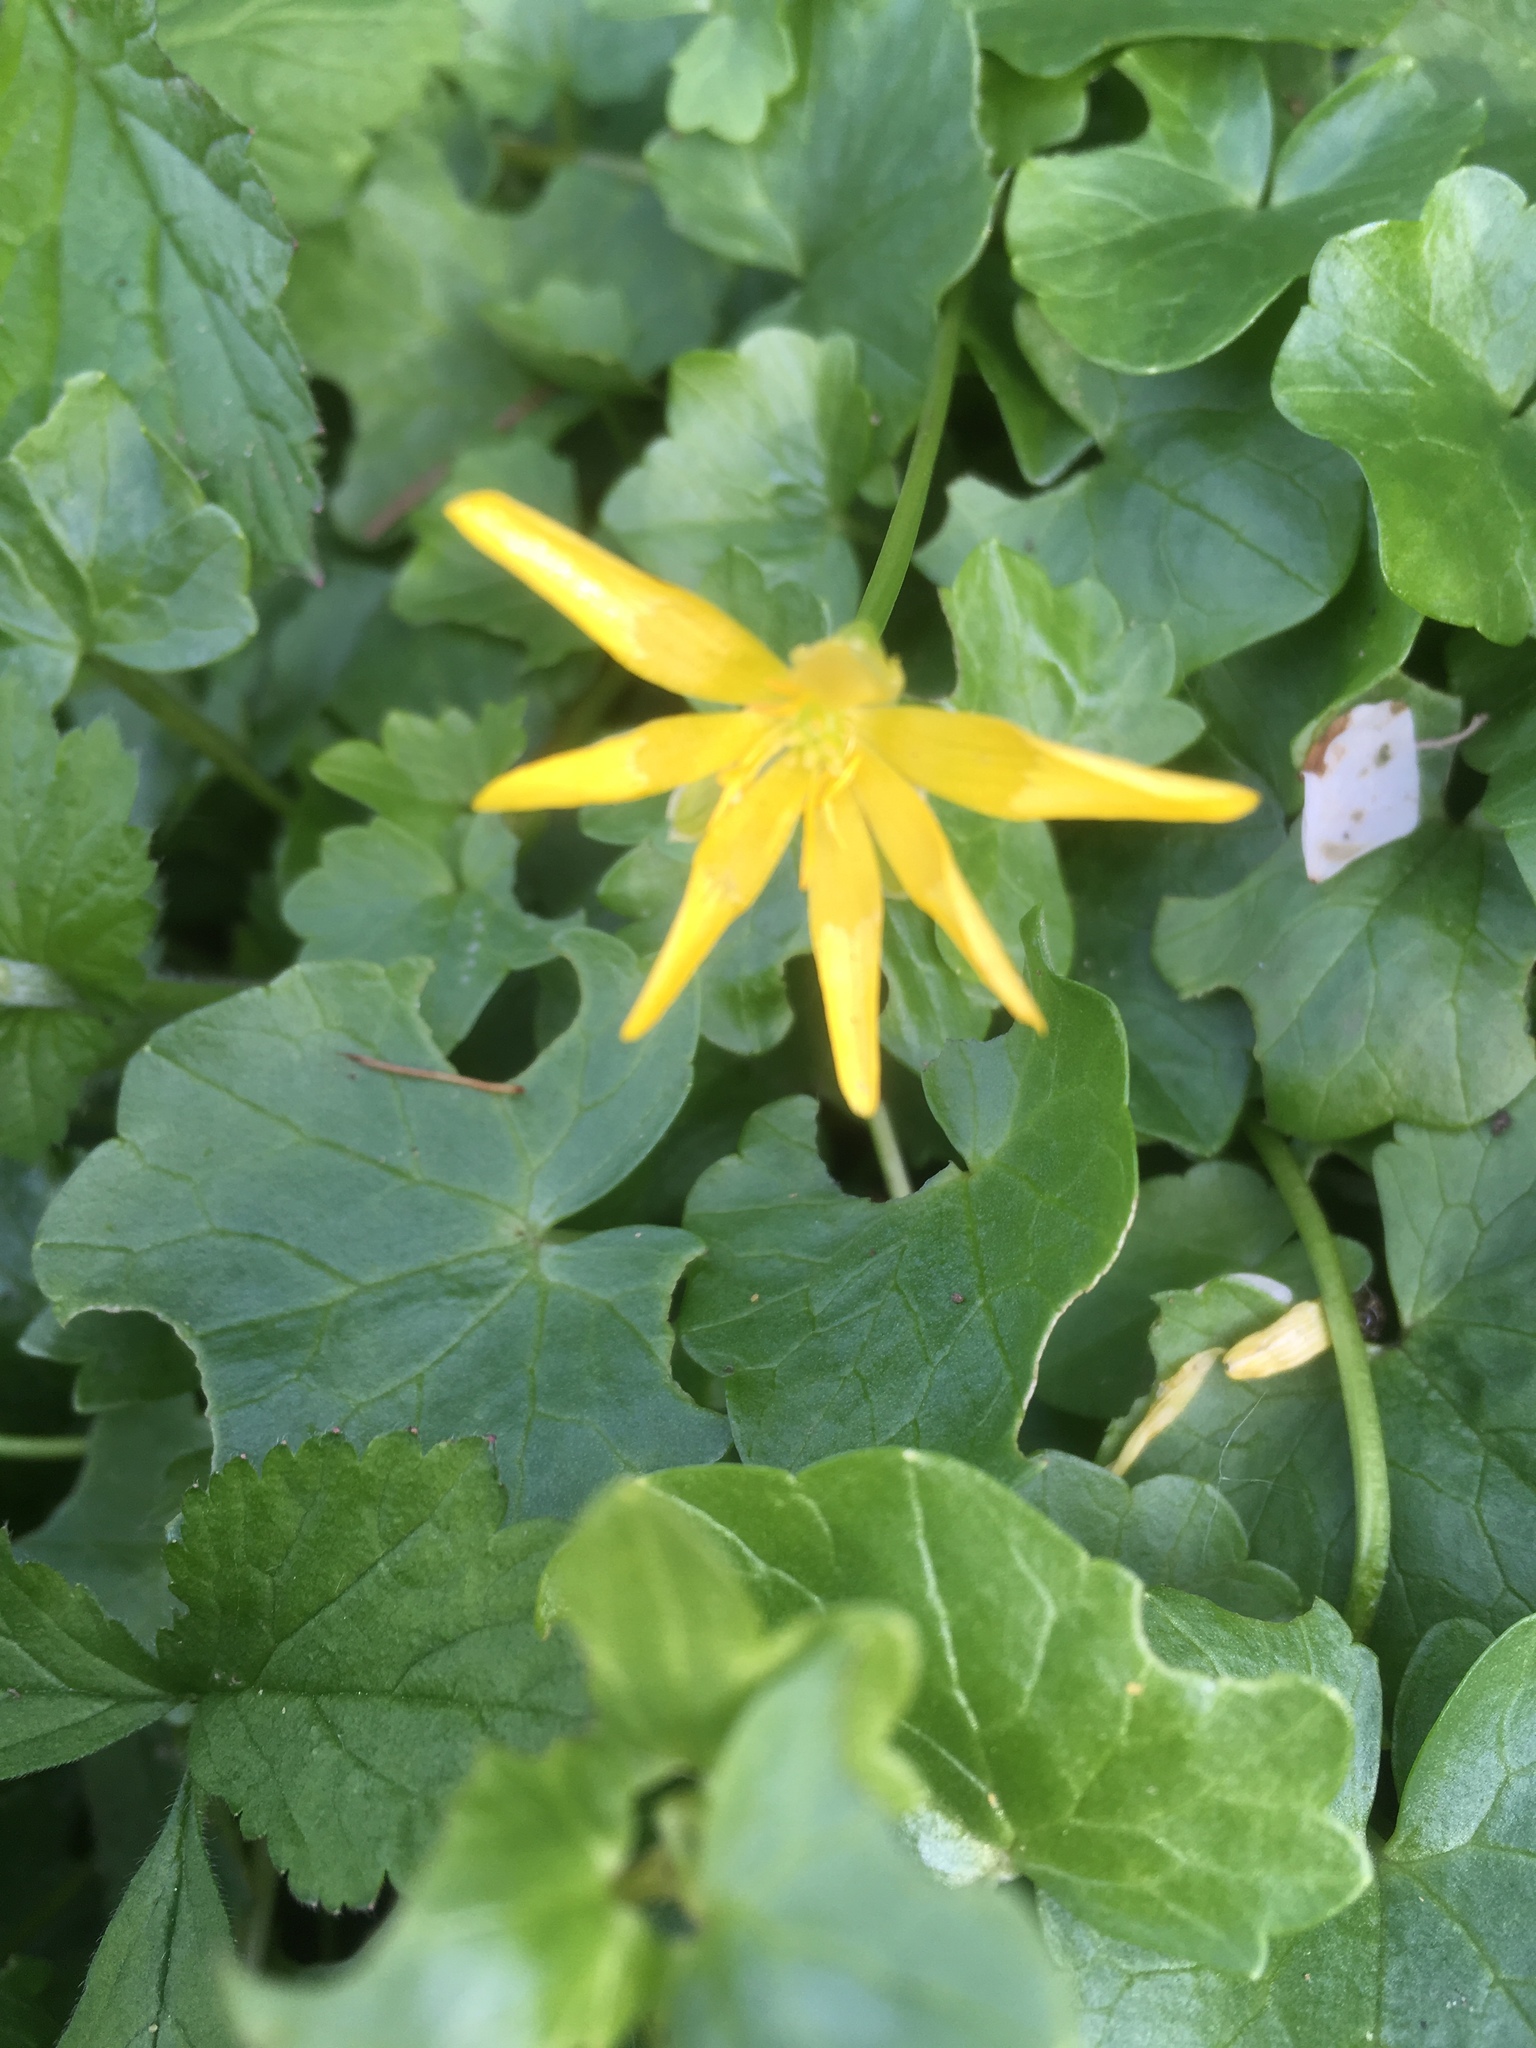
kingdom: Plantae
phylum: Tracheophyta
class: Magnoliopsida
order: Ranunculales
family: Ranunculaceae
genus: Ficaria
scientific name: Ficaria verna
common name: Lesser celandine
